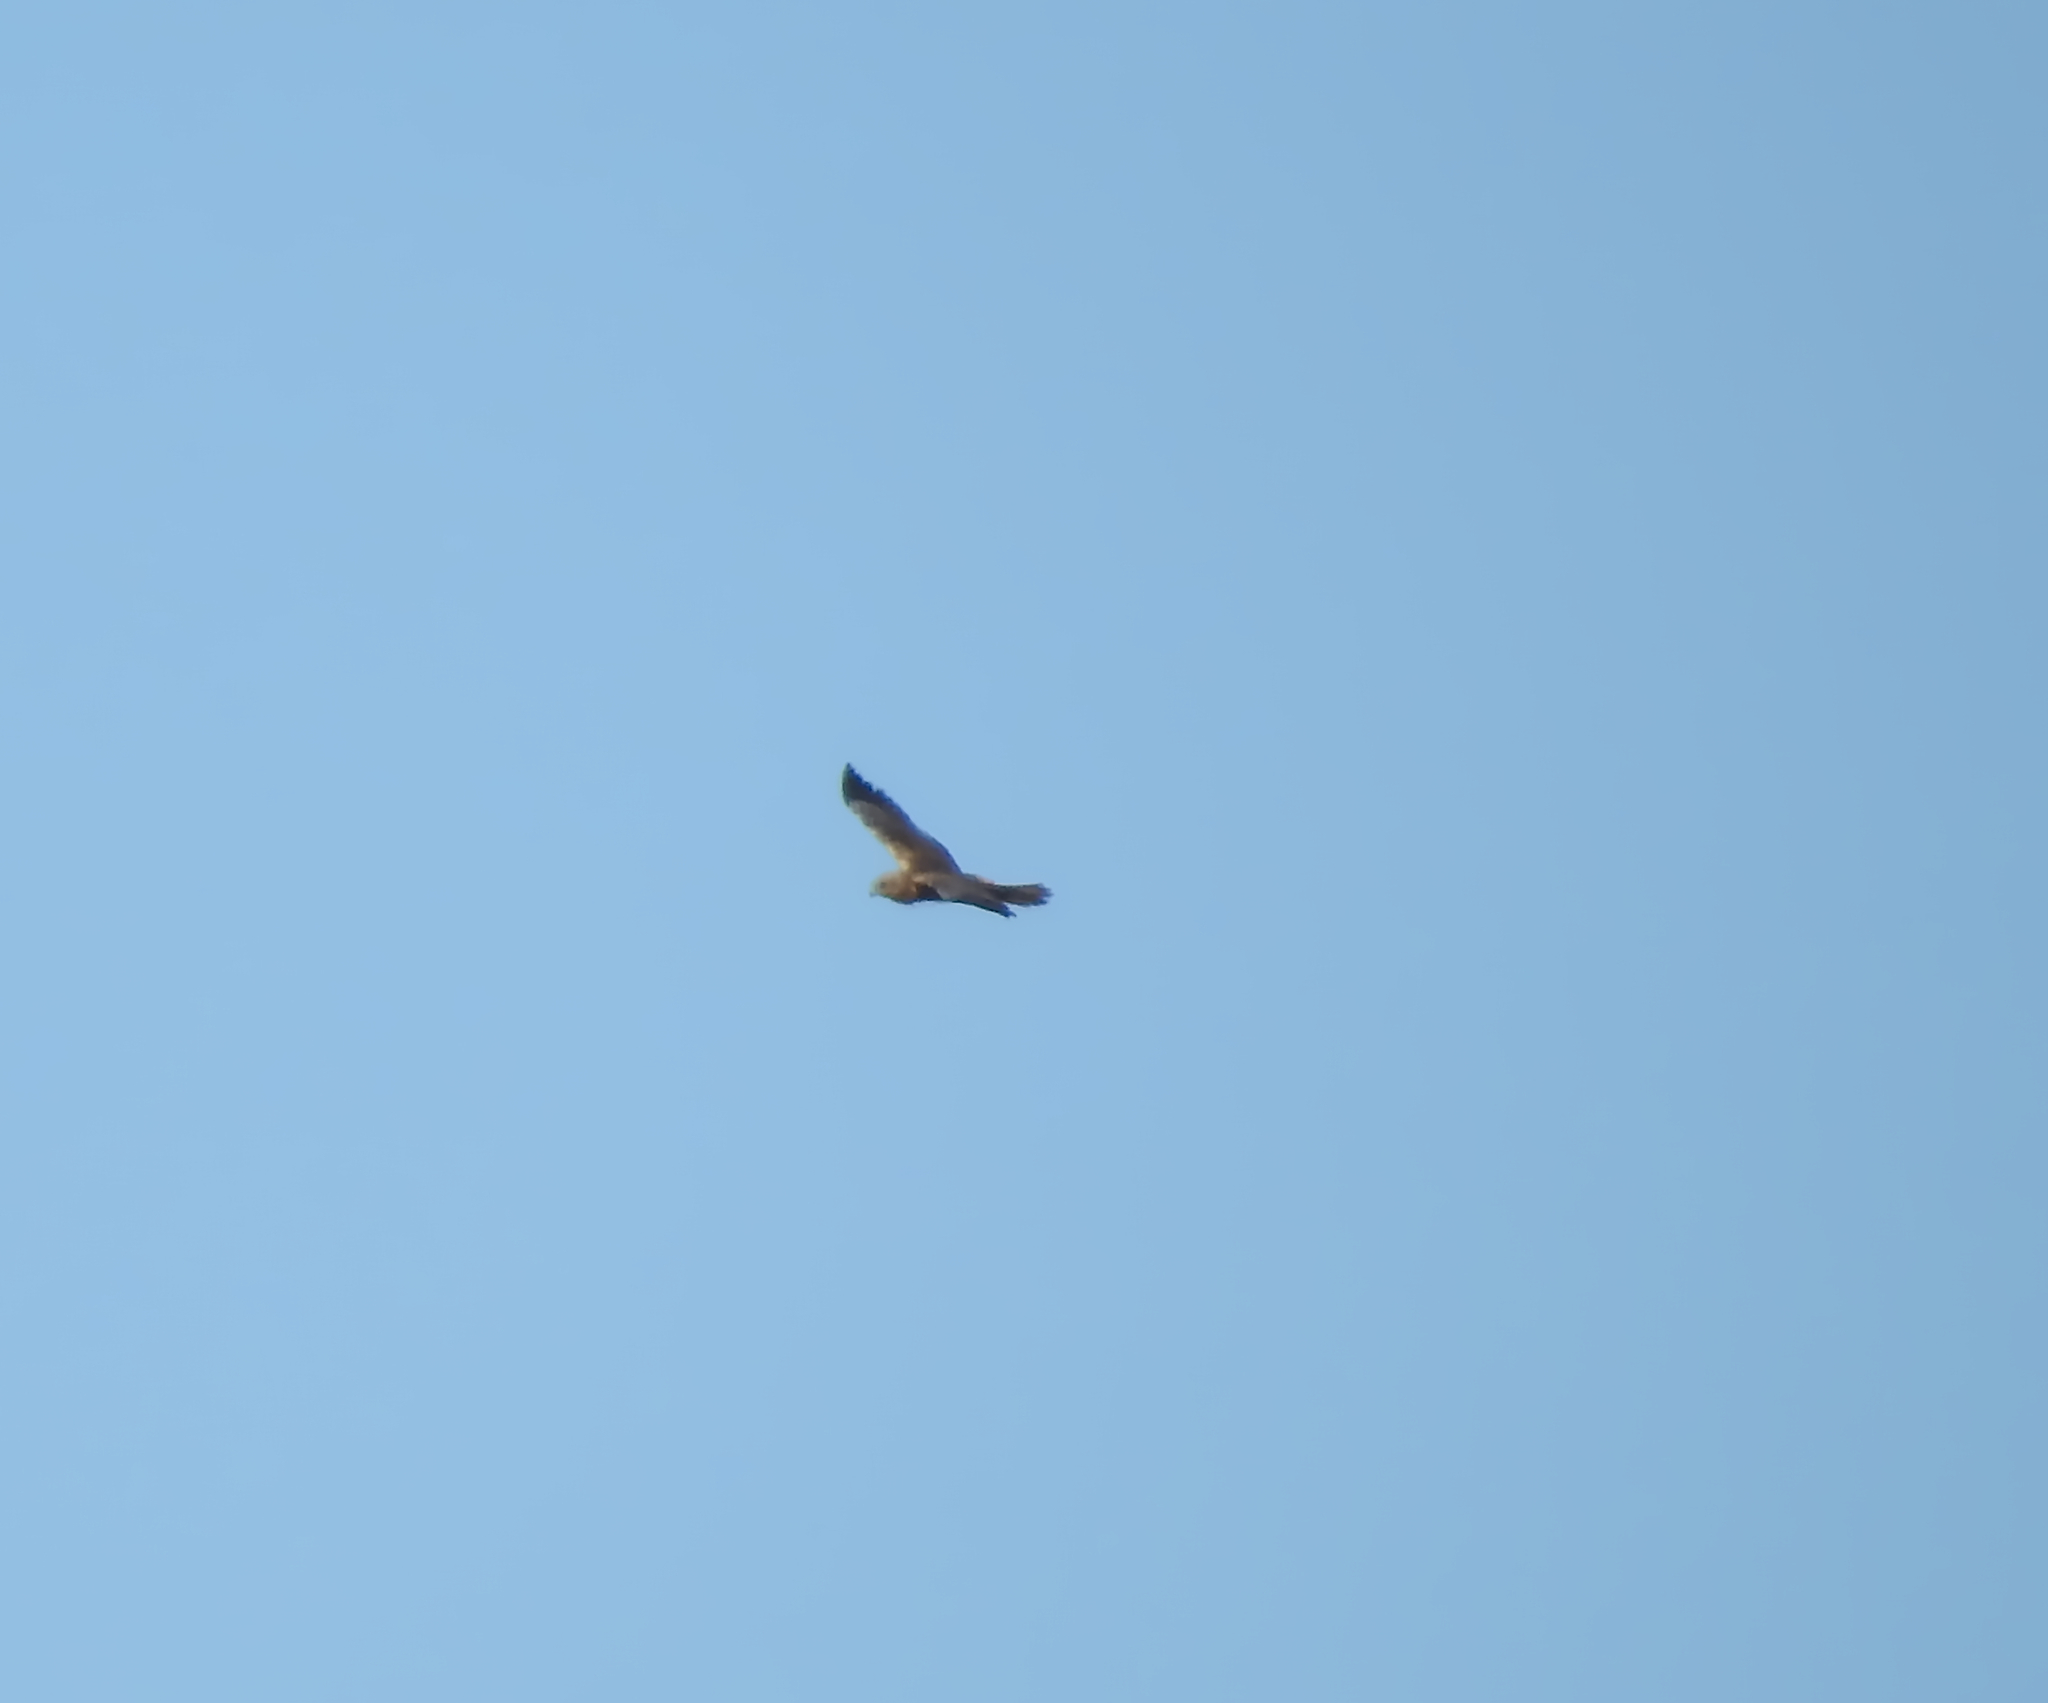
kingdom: Animalia
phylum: Chordata
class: Aves
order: Accipitriformes
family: Accipitridae
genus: Circus
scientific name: Circus aeruginosus
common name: Western marsh harrier
